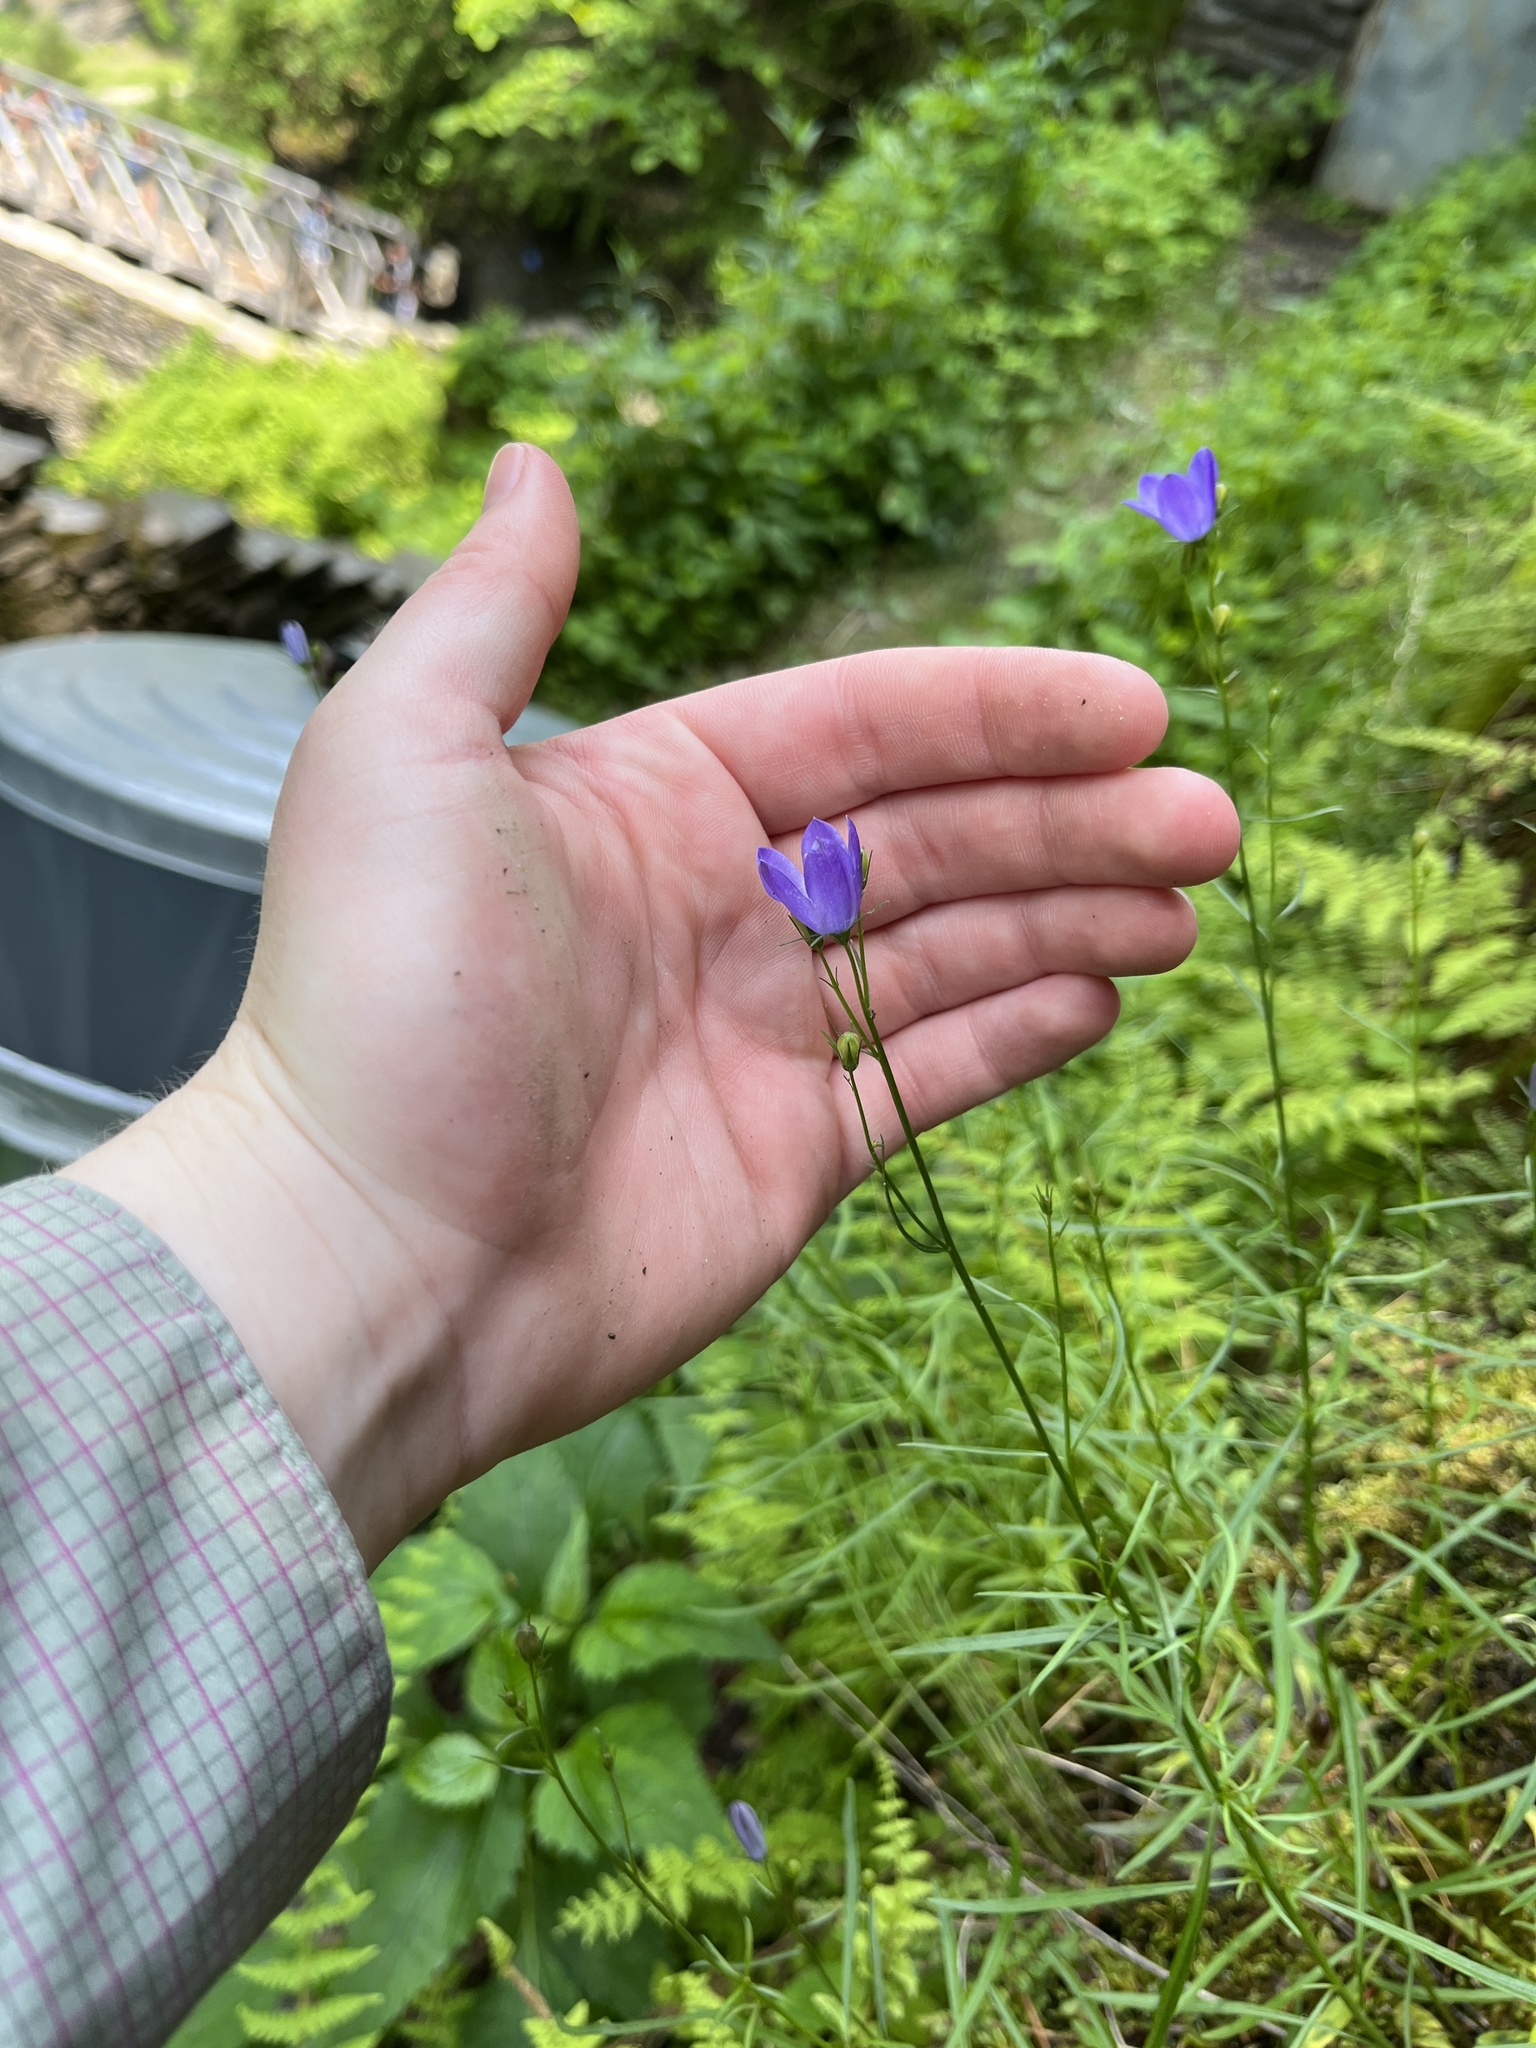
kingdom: Plantae
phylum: Tracheophyta
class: Magnoliopsida
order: Asterales
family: Campanulaceae
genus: Campanula
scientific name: Campanula intercedens
